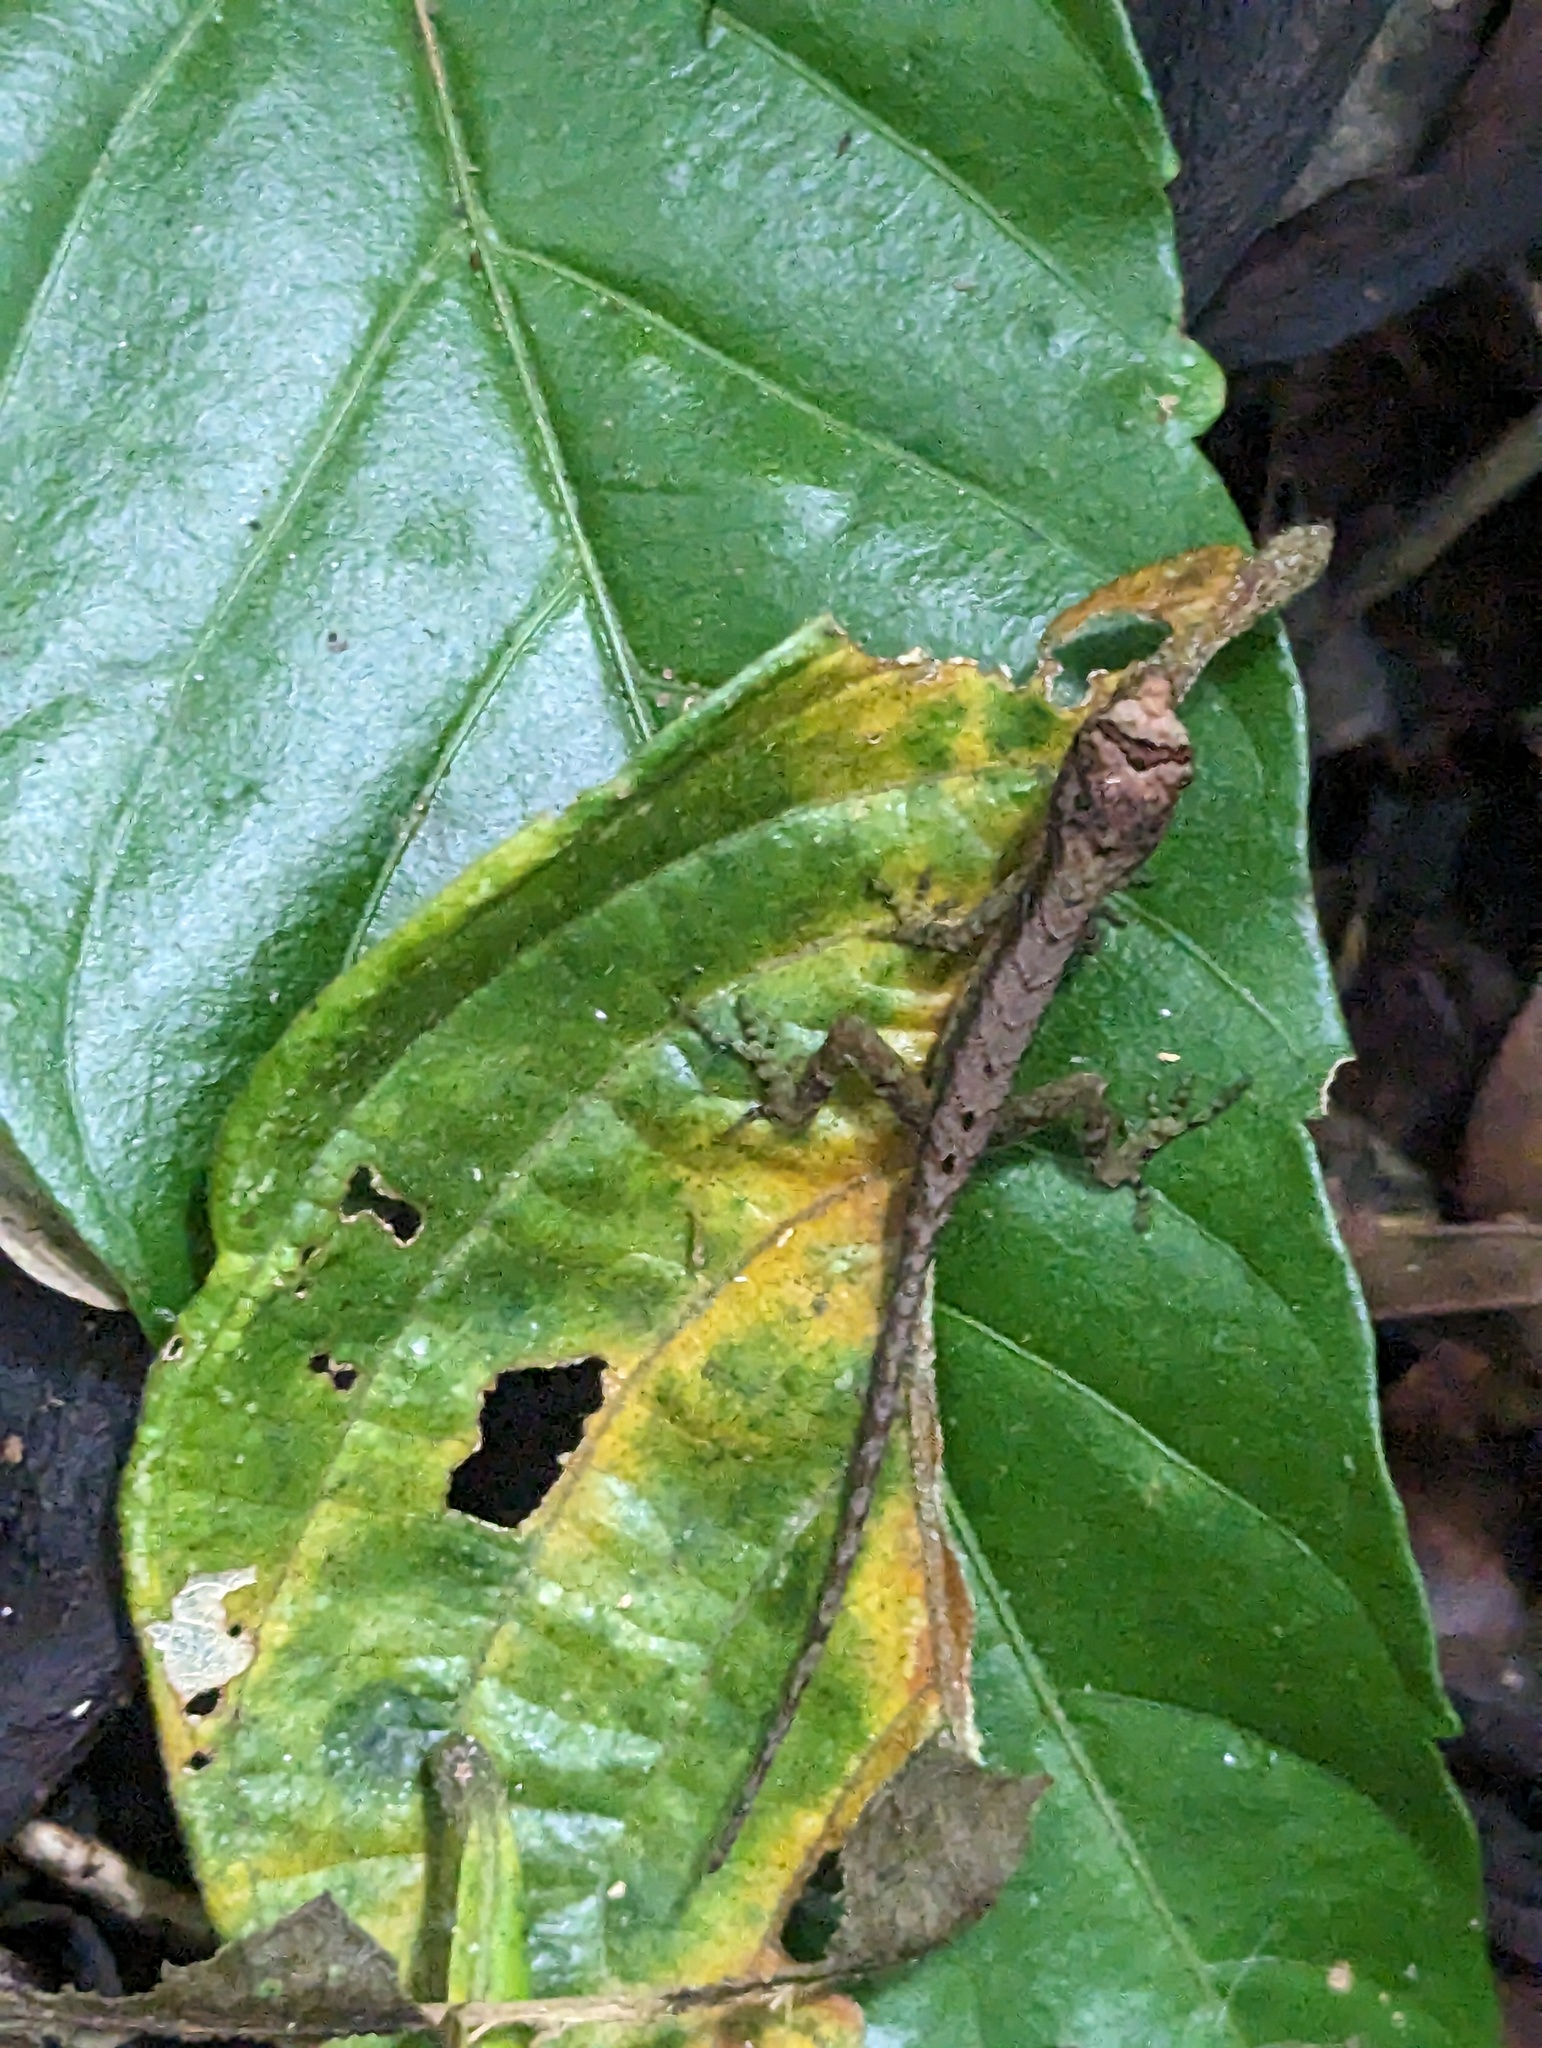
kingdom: Animalia
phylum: Chordata
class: Squamata
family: Dactyloidae
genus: Anolis
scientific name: Anolis humilis
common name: Humble anole
